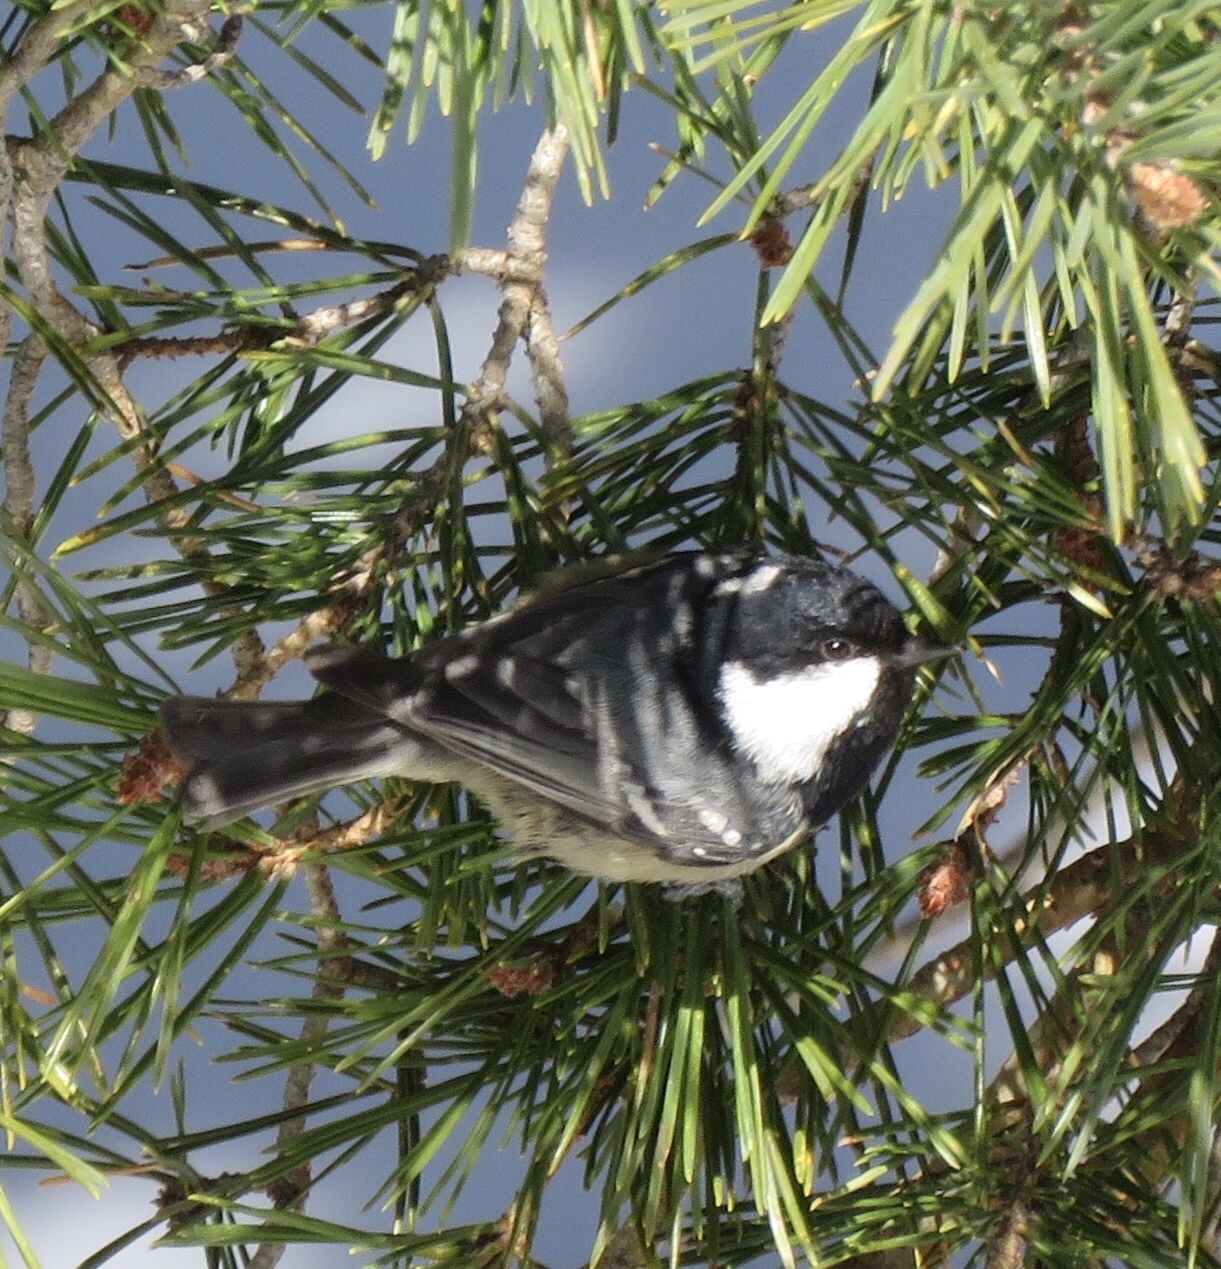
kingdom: Animalia
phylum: Chordata
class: Aves
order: Passeriformes
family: Paridae
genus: Periparus
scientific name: Periparus ater
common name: Coal tit
